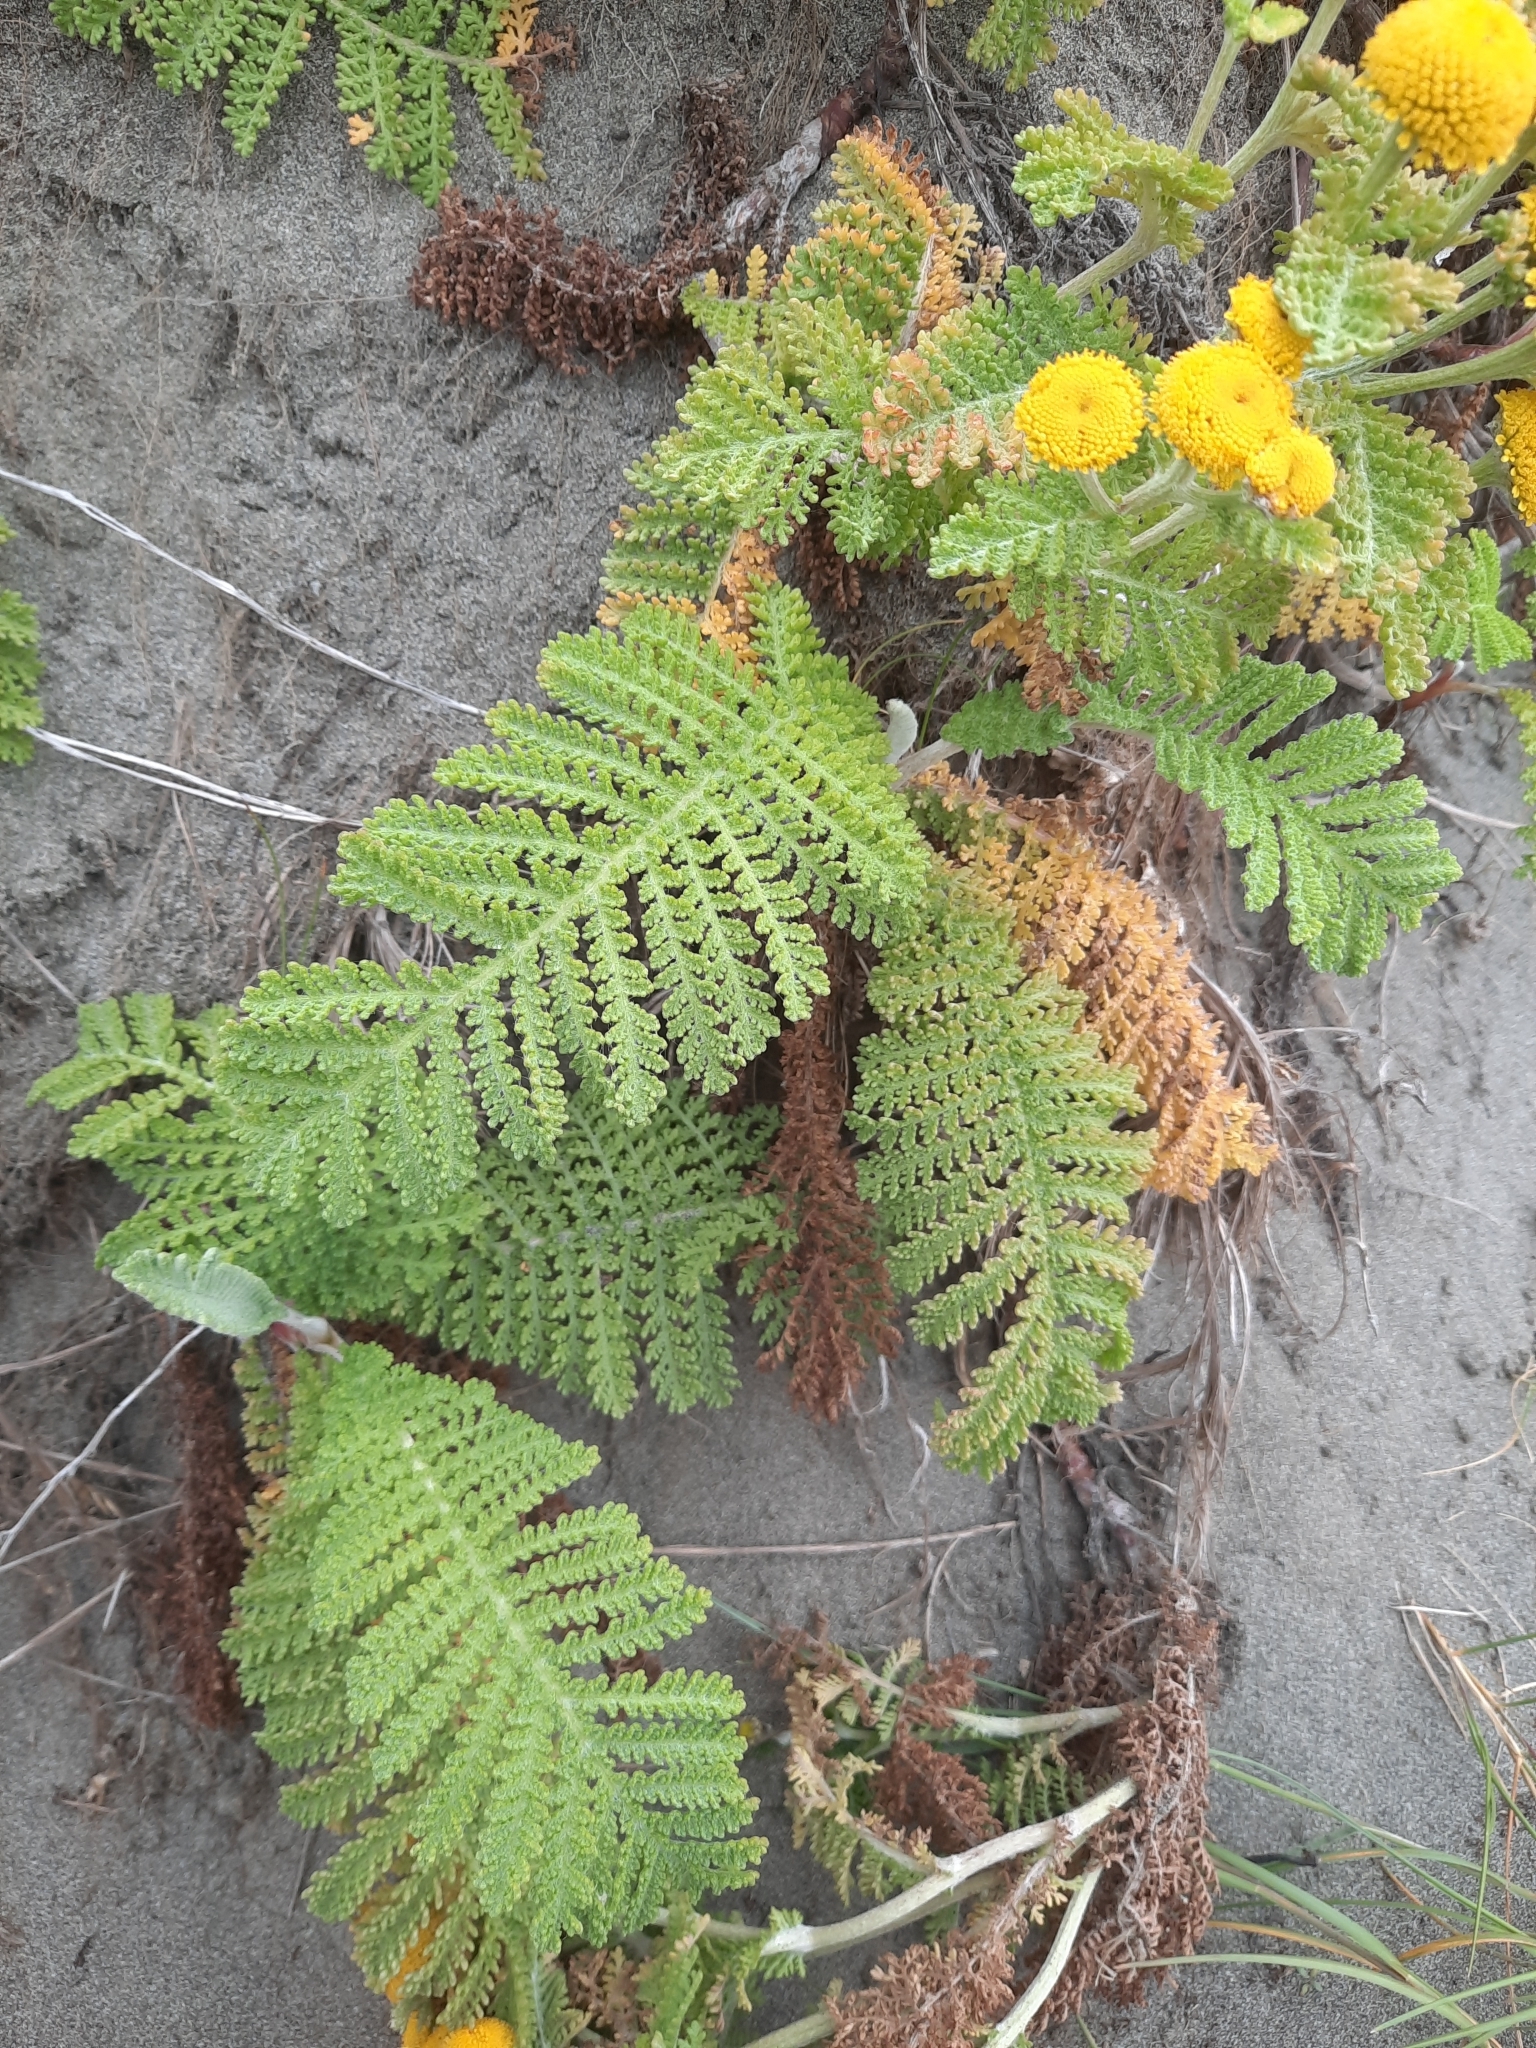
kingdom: Plantae
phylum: Tracheophyta
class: Magnoliopsida
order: Asterales
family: Asteraceae
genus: Tanacetum
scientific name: Tanacetum bipinnatum
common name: Dwarf tansy
